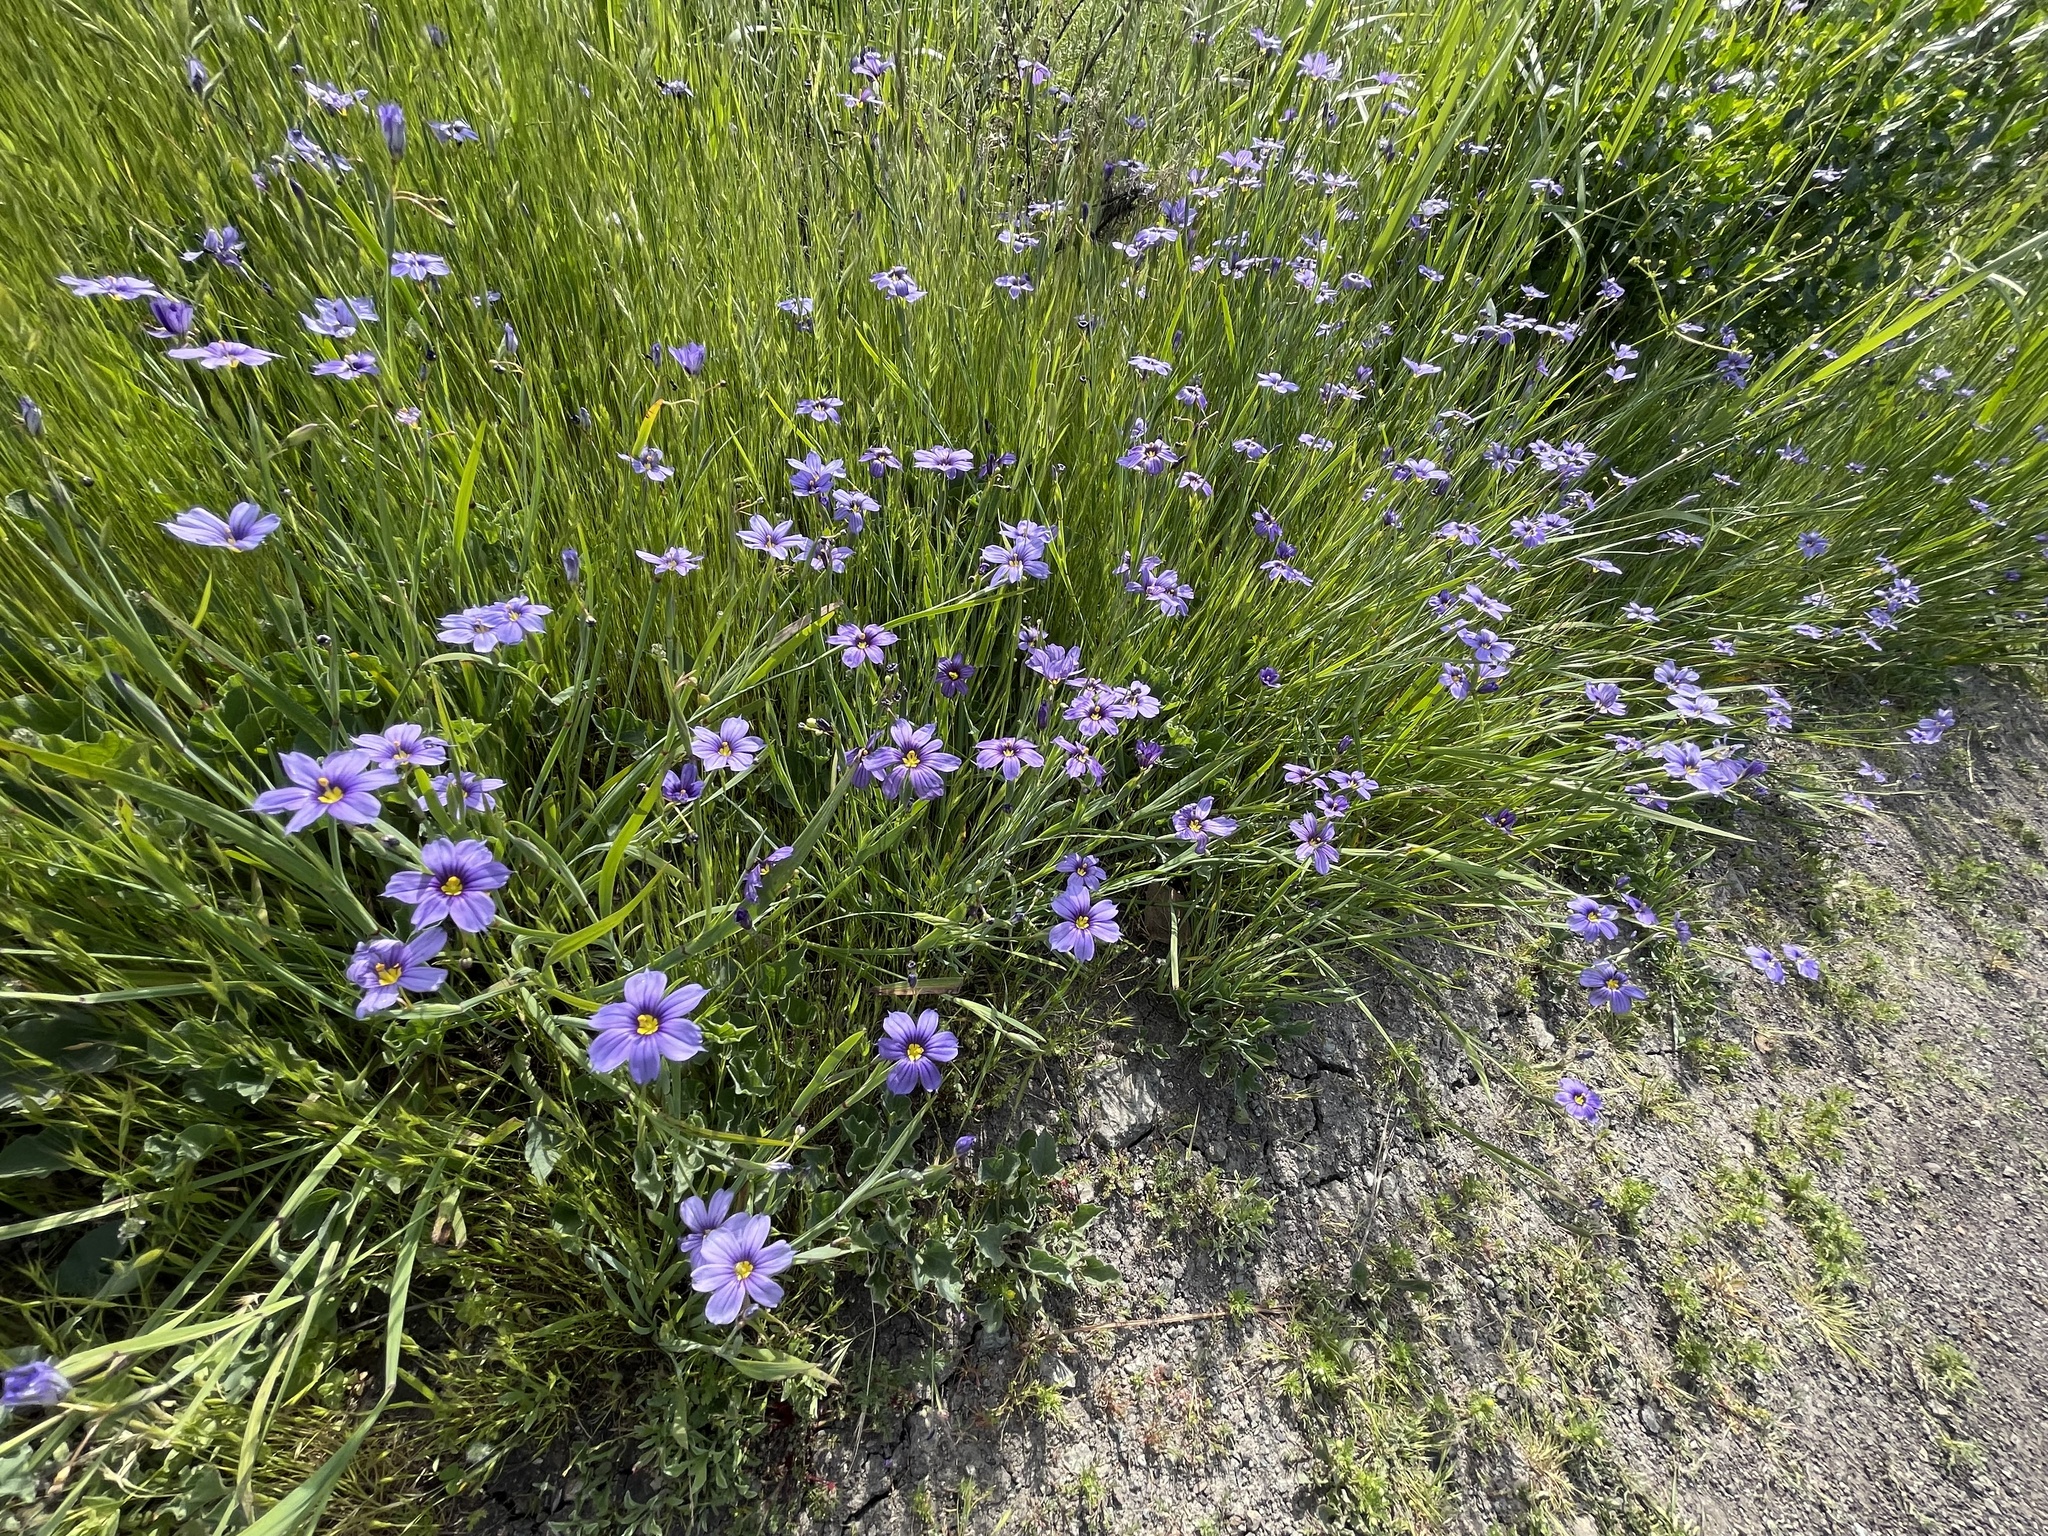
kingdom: Plantae
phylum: Tracheophyta
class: Liliopsida
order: Asparagales
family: Iridaceae
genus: Sisyrinchium
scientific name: Sisyrinchium bellum
